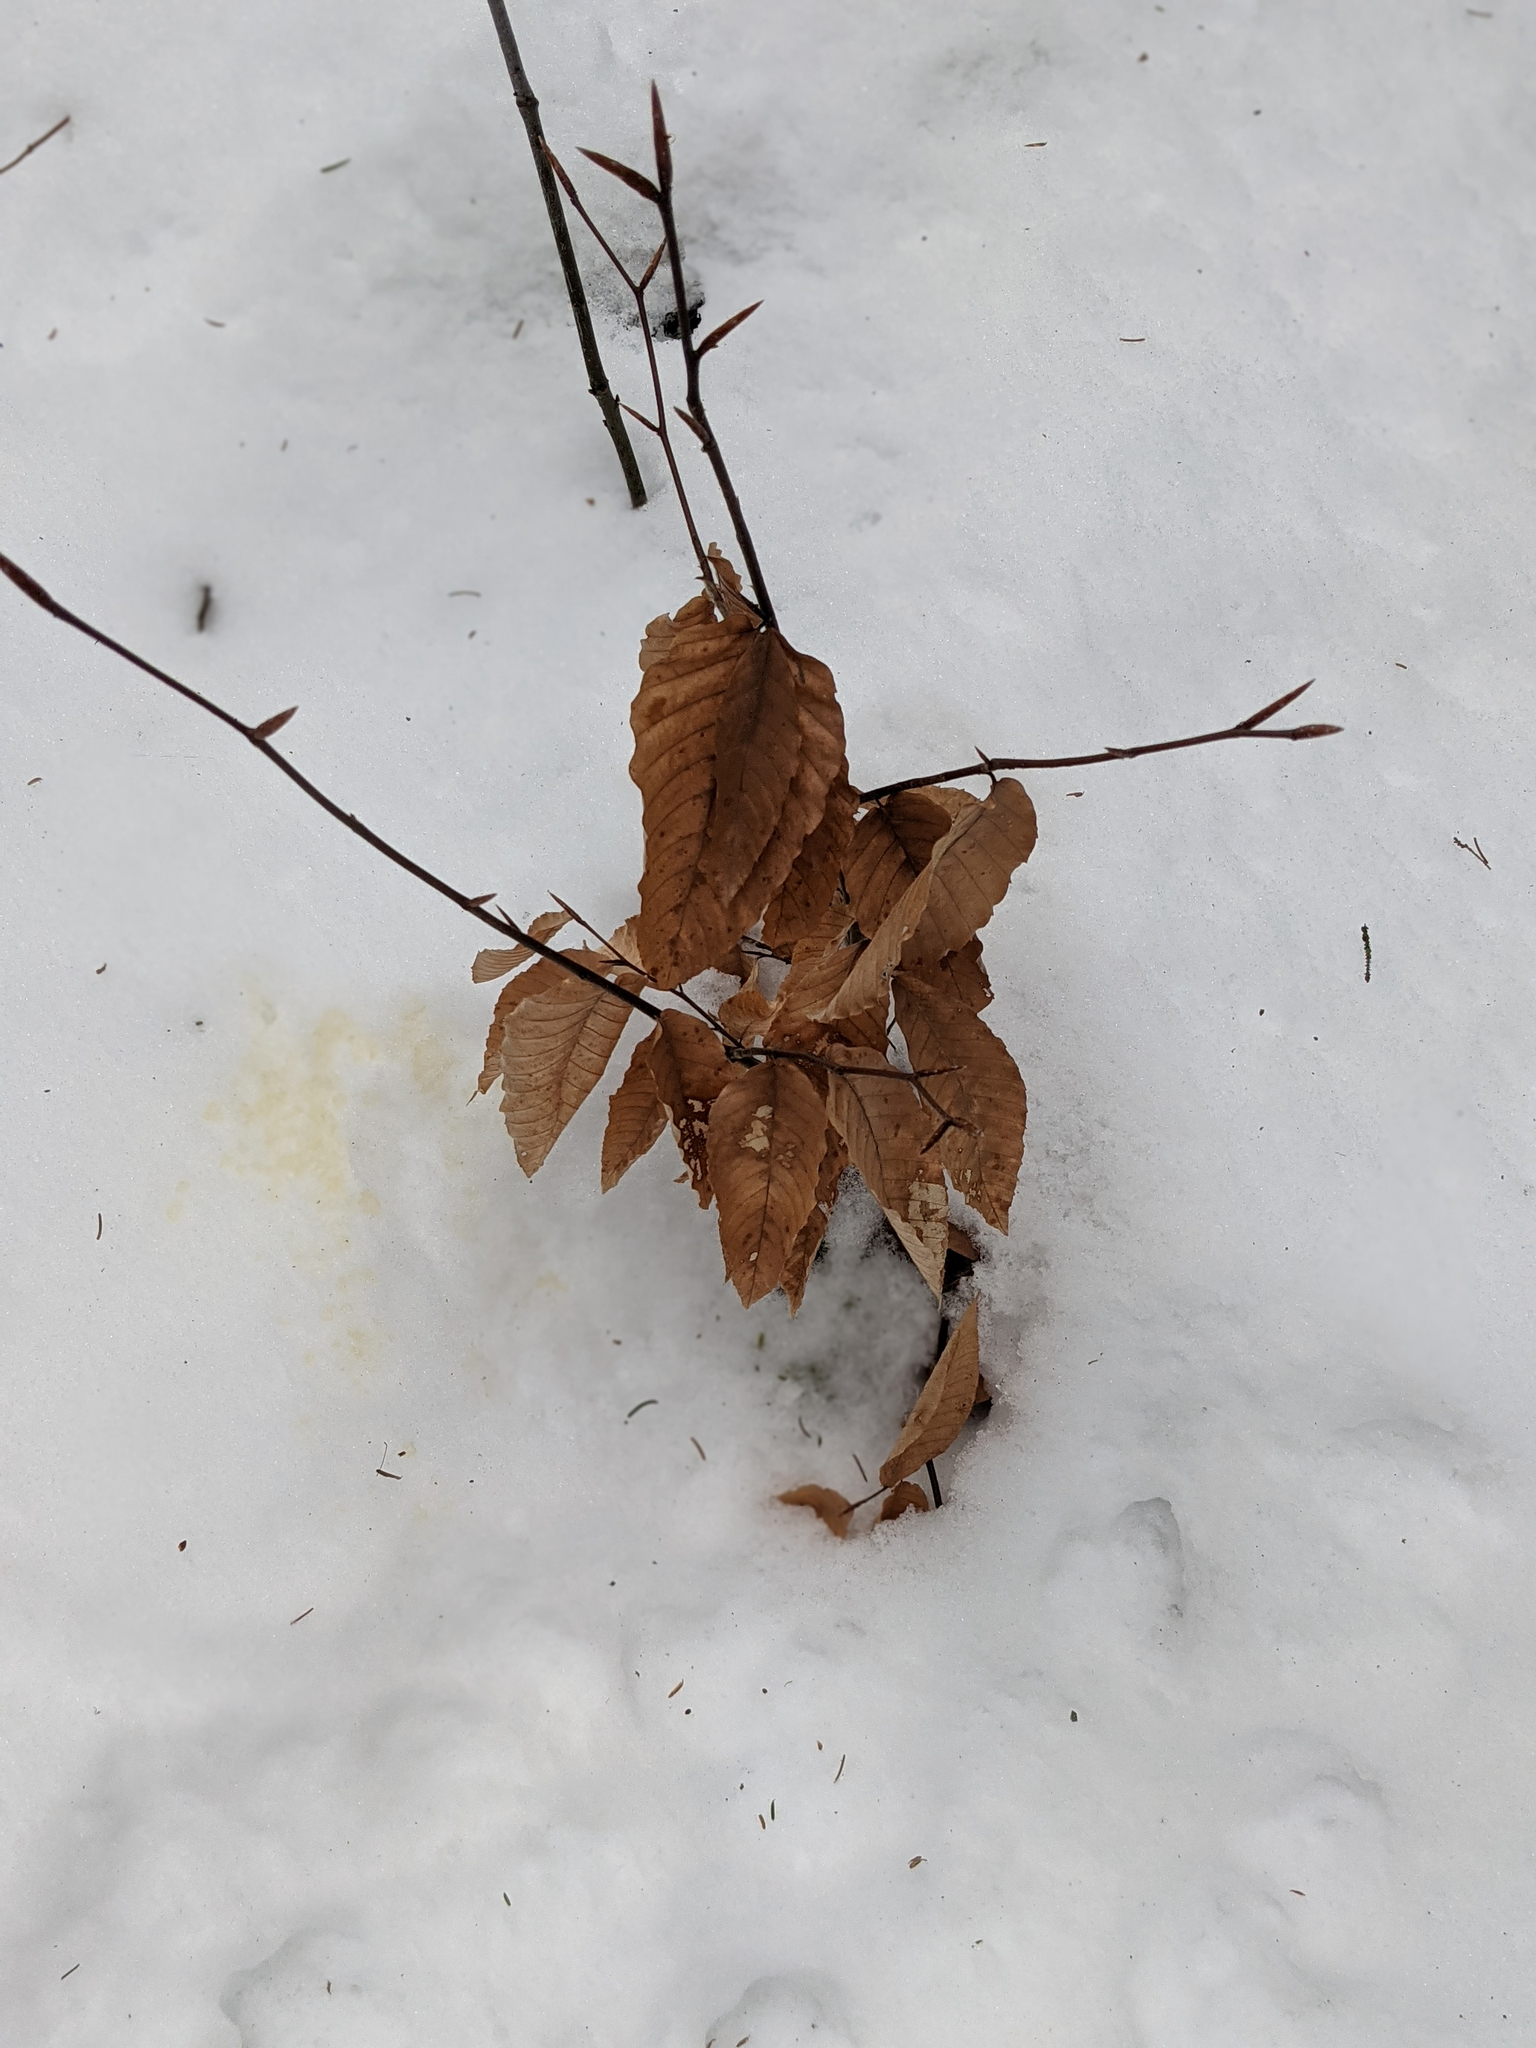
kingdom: Plantae
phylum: Tracheophyta
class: Magnoliopsida
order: Fagales
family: Fagaceae
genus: Fagus
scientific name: Fagus grandifolia
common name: American beech
